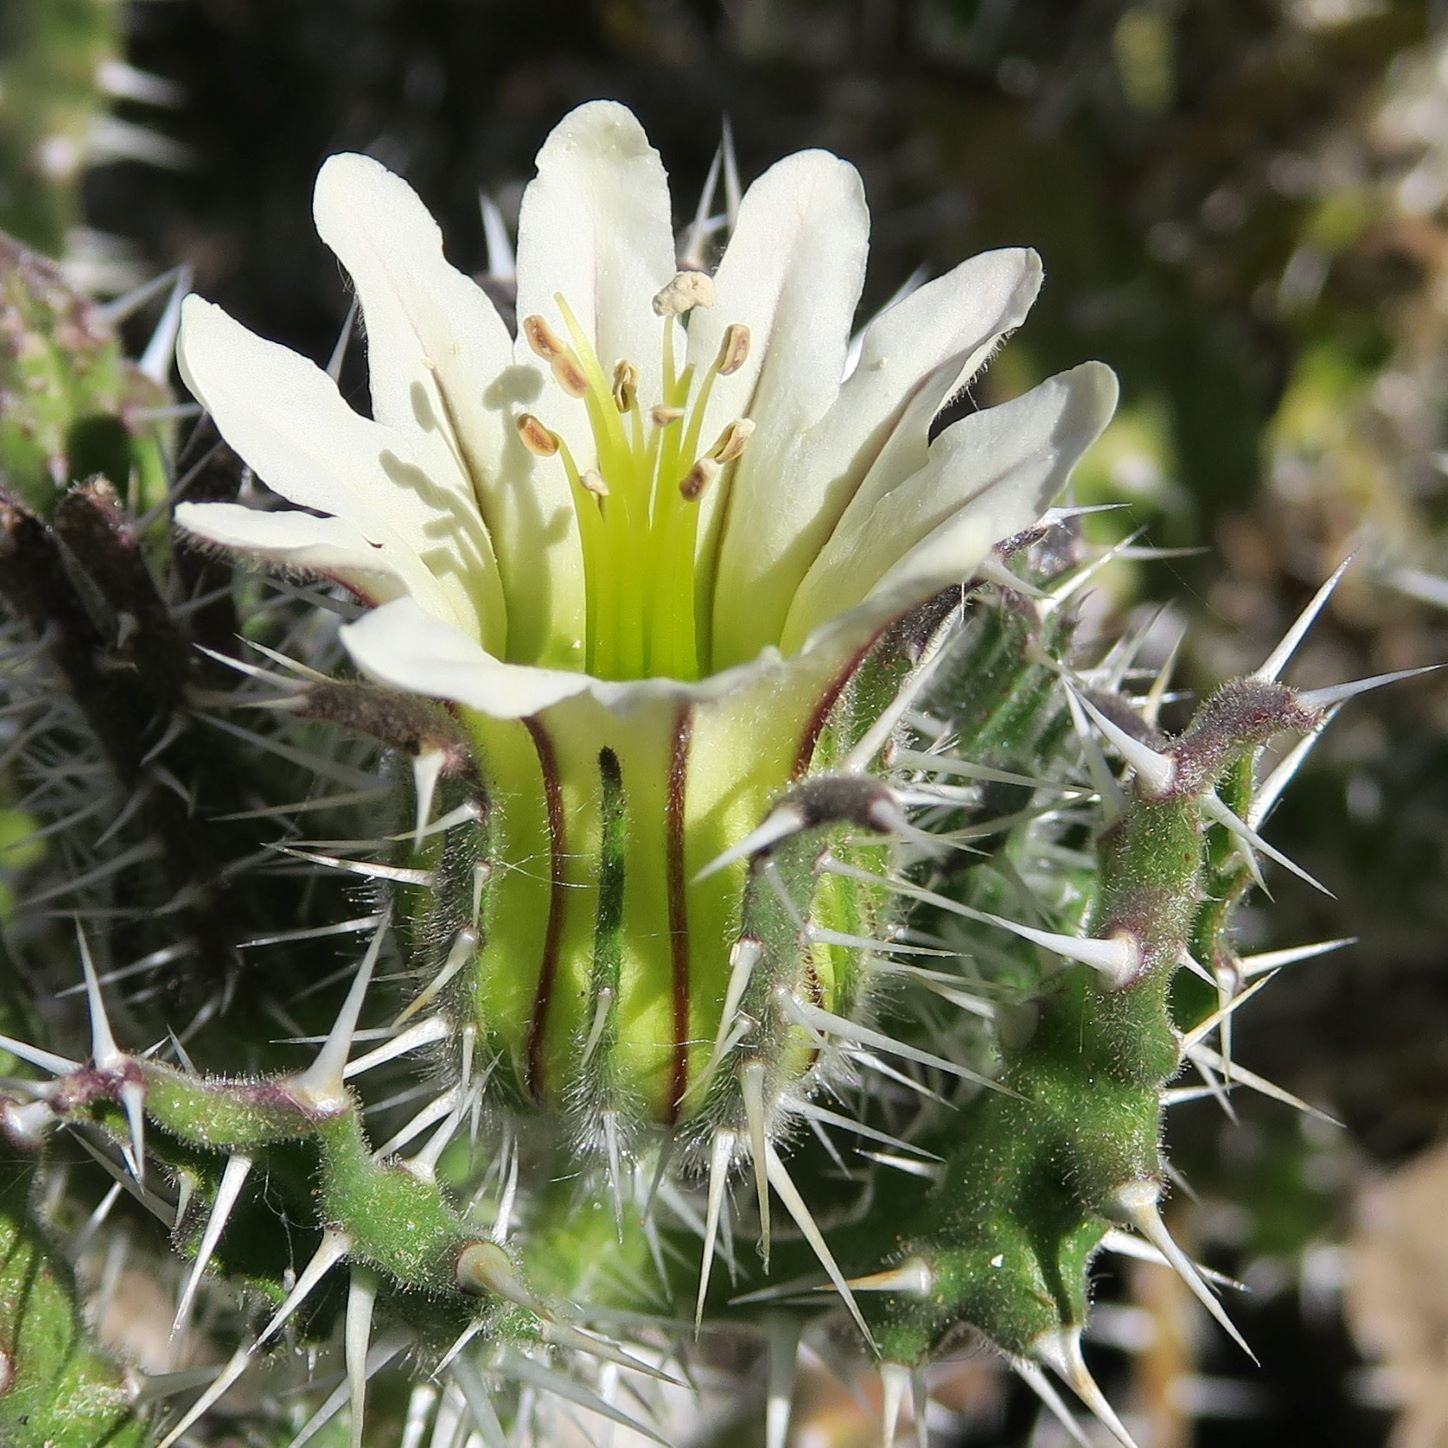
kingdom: Plantae
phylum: Tracheophyta
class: Magnoliopsida
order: Boraginales
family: Boraginaceae
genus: Codon
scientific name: Codon royenii
